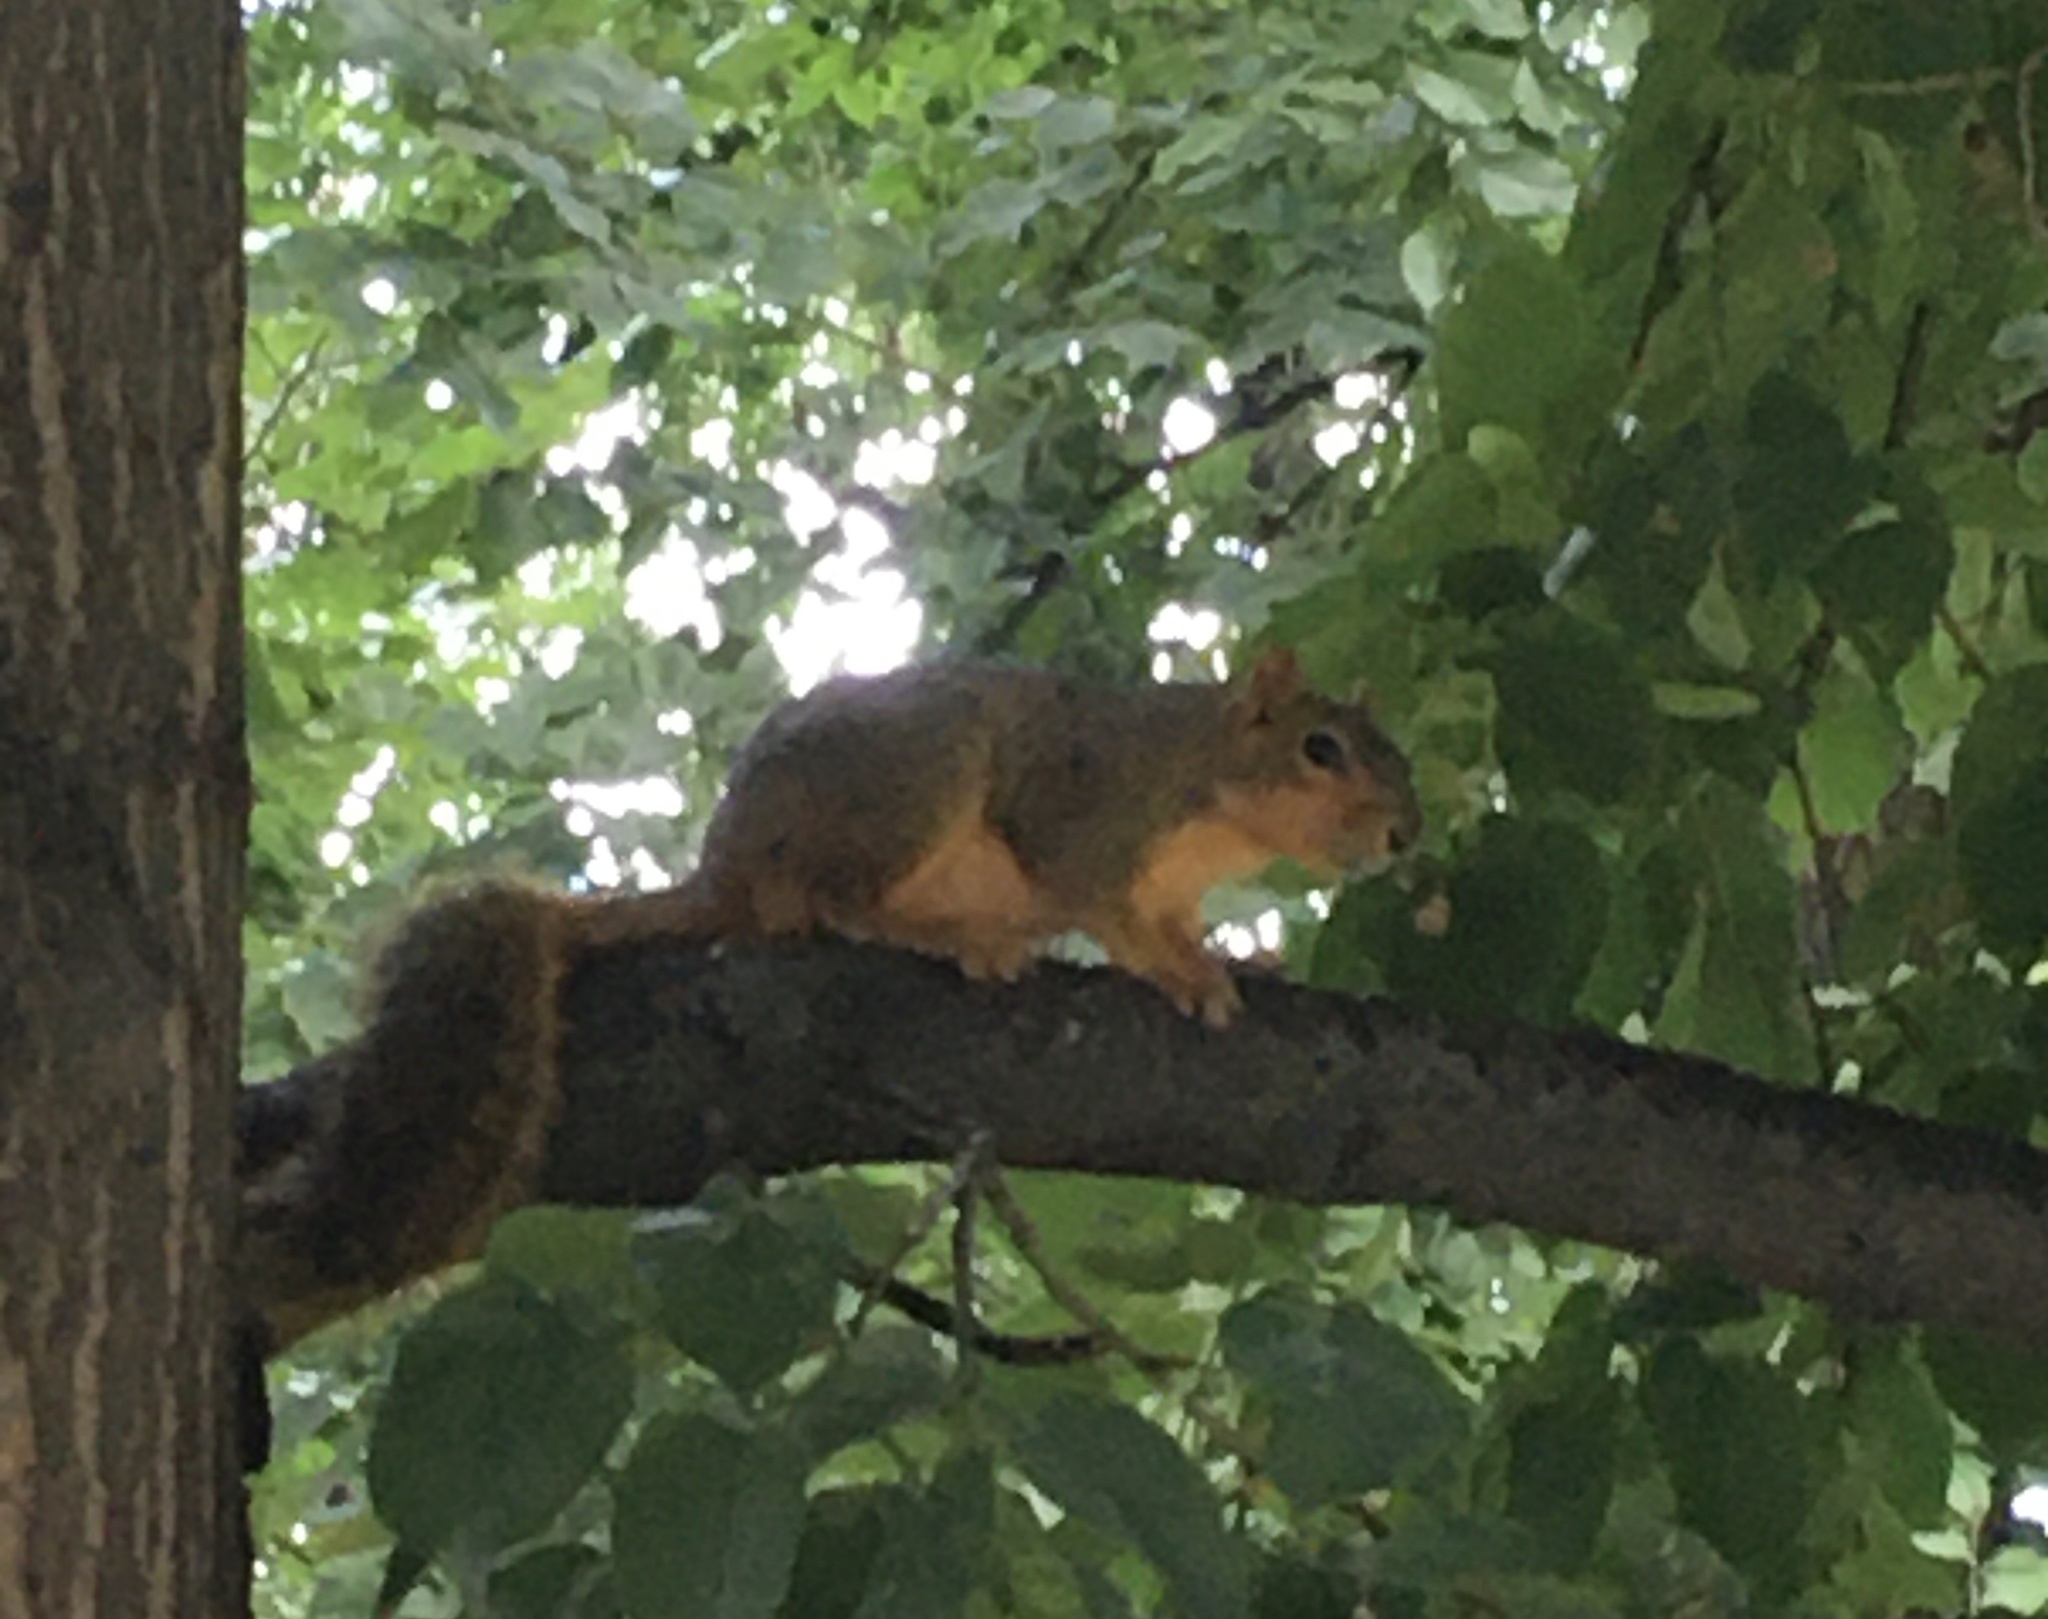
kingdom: Animalia
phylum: Chordata
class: Mammalia
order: Rodentia
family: Sciuridae
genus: Sciurus
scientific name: Sciurus niger
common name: Fox squirrel
